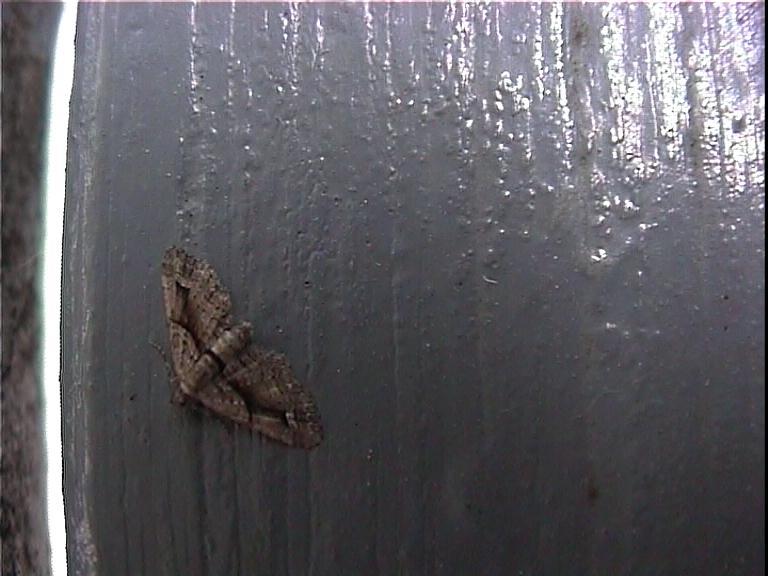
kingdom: Animalia
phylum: Arthropoda
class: Insecta
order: Lepidoptera
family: Geometridae
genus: Idaea
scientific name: Idaea mutanda
